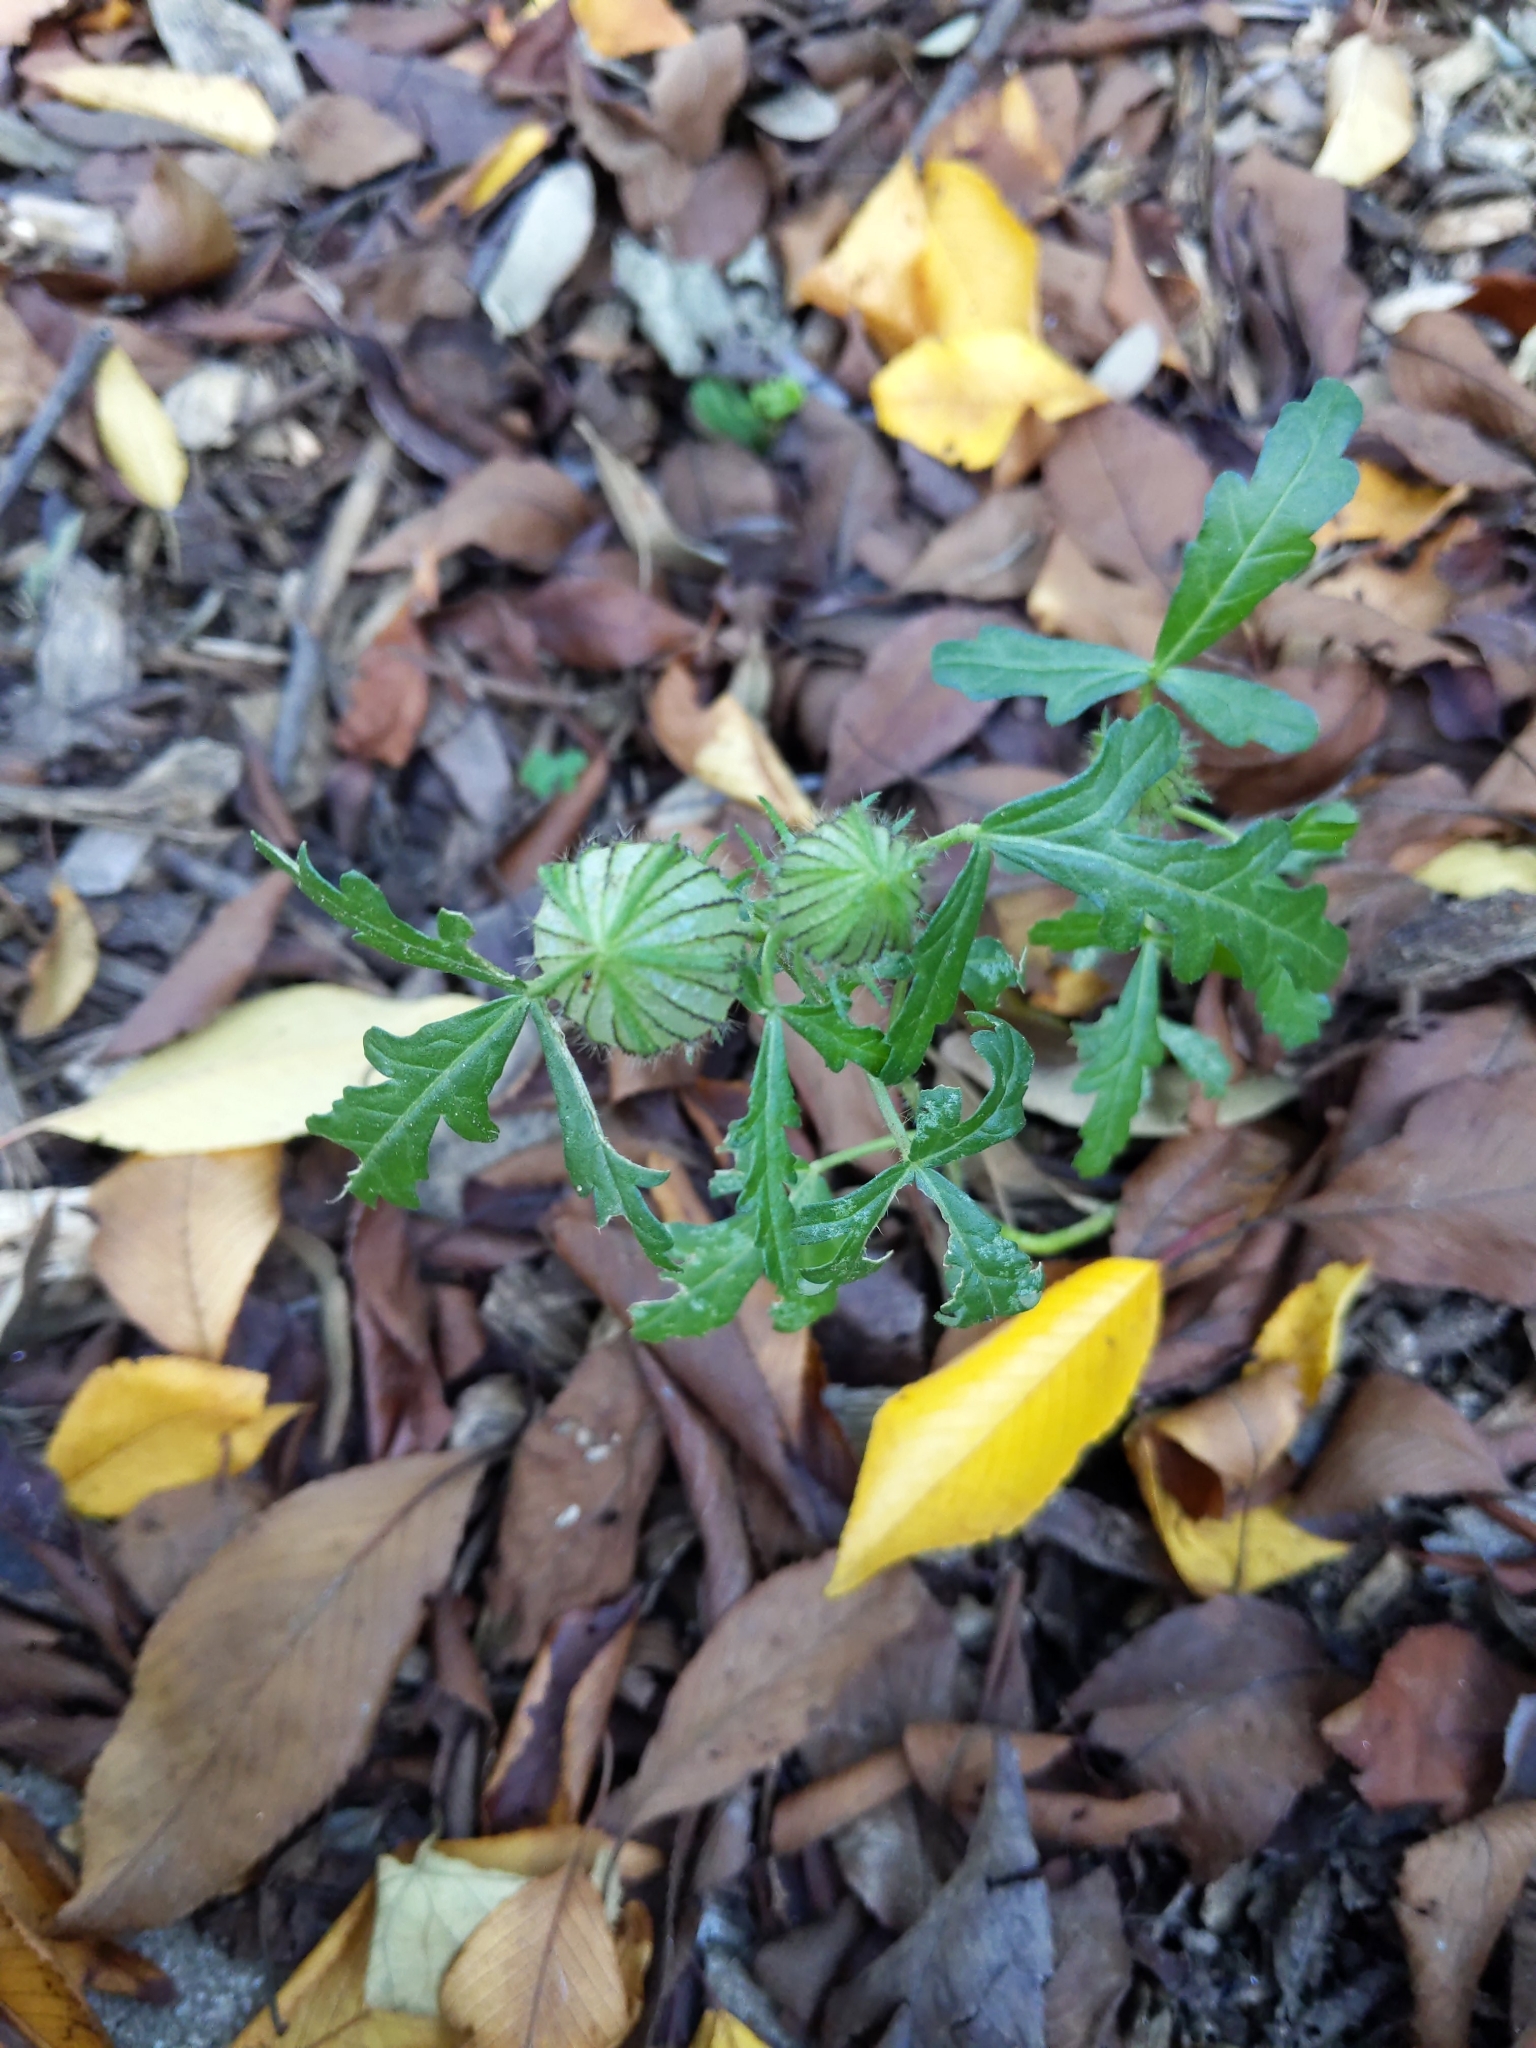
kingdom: Plantae
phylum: Tracheophyta
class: Magnoliopsida
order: Malvales
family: Malvaceae
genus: Hibiscus
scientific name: Hibiscus trionum
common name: Bladder ketmia
